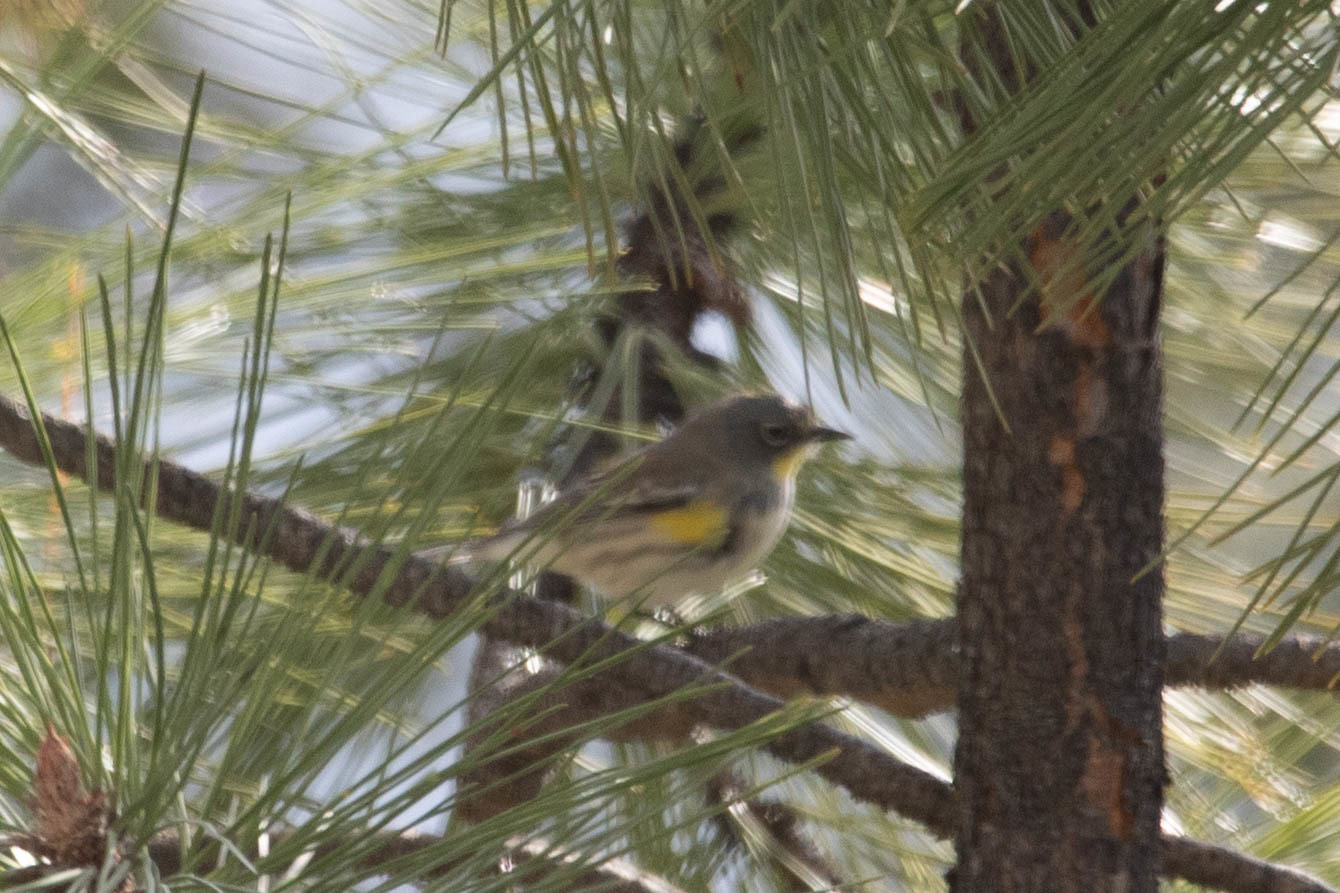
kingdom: Animalia
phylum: Chordata
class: Aves
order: Passeriformes
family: Parulidae
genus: Setophaga
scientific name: Setophaga auduboni
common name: Audubon's warbler
